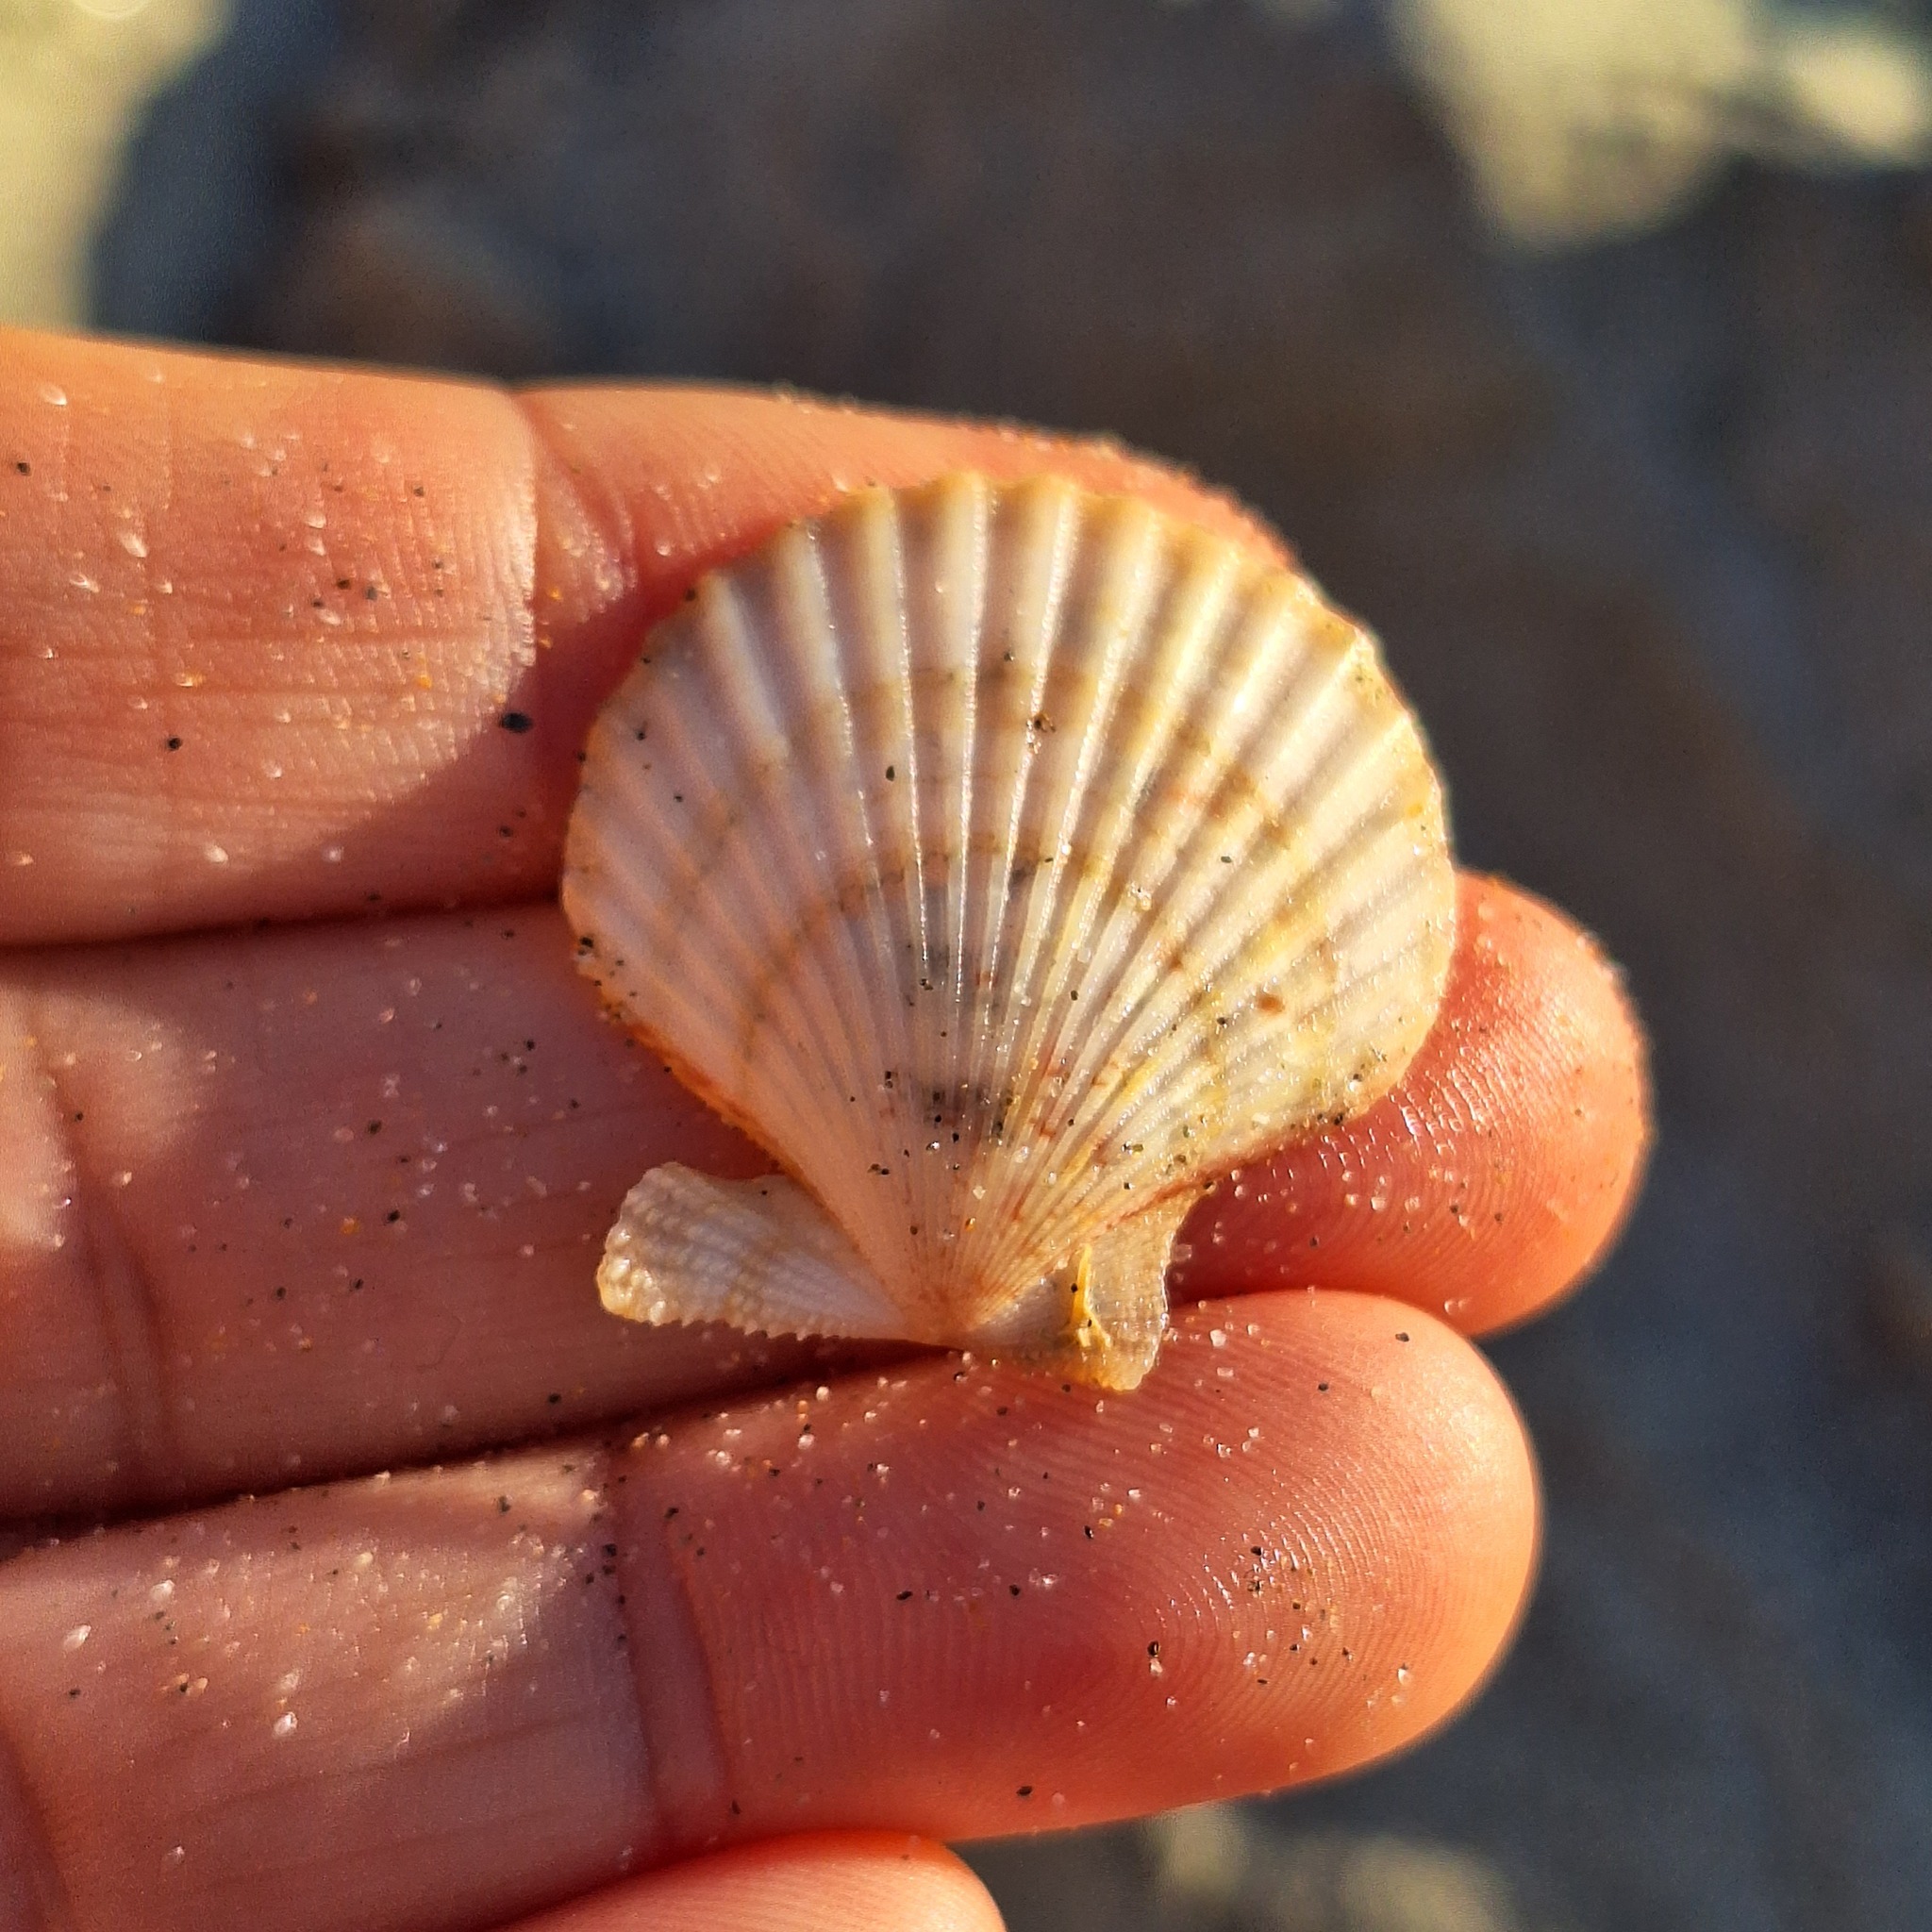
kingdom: Animalia
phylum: Mollusca
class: Bivalvia
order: Pectinida
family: Pectinidae
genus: Aequipecten
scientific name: Aequipecten opercularis
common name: Queen scallop
